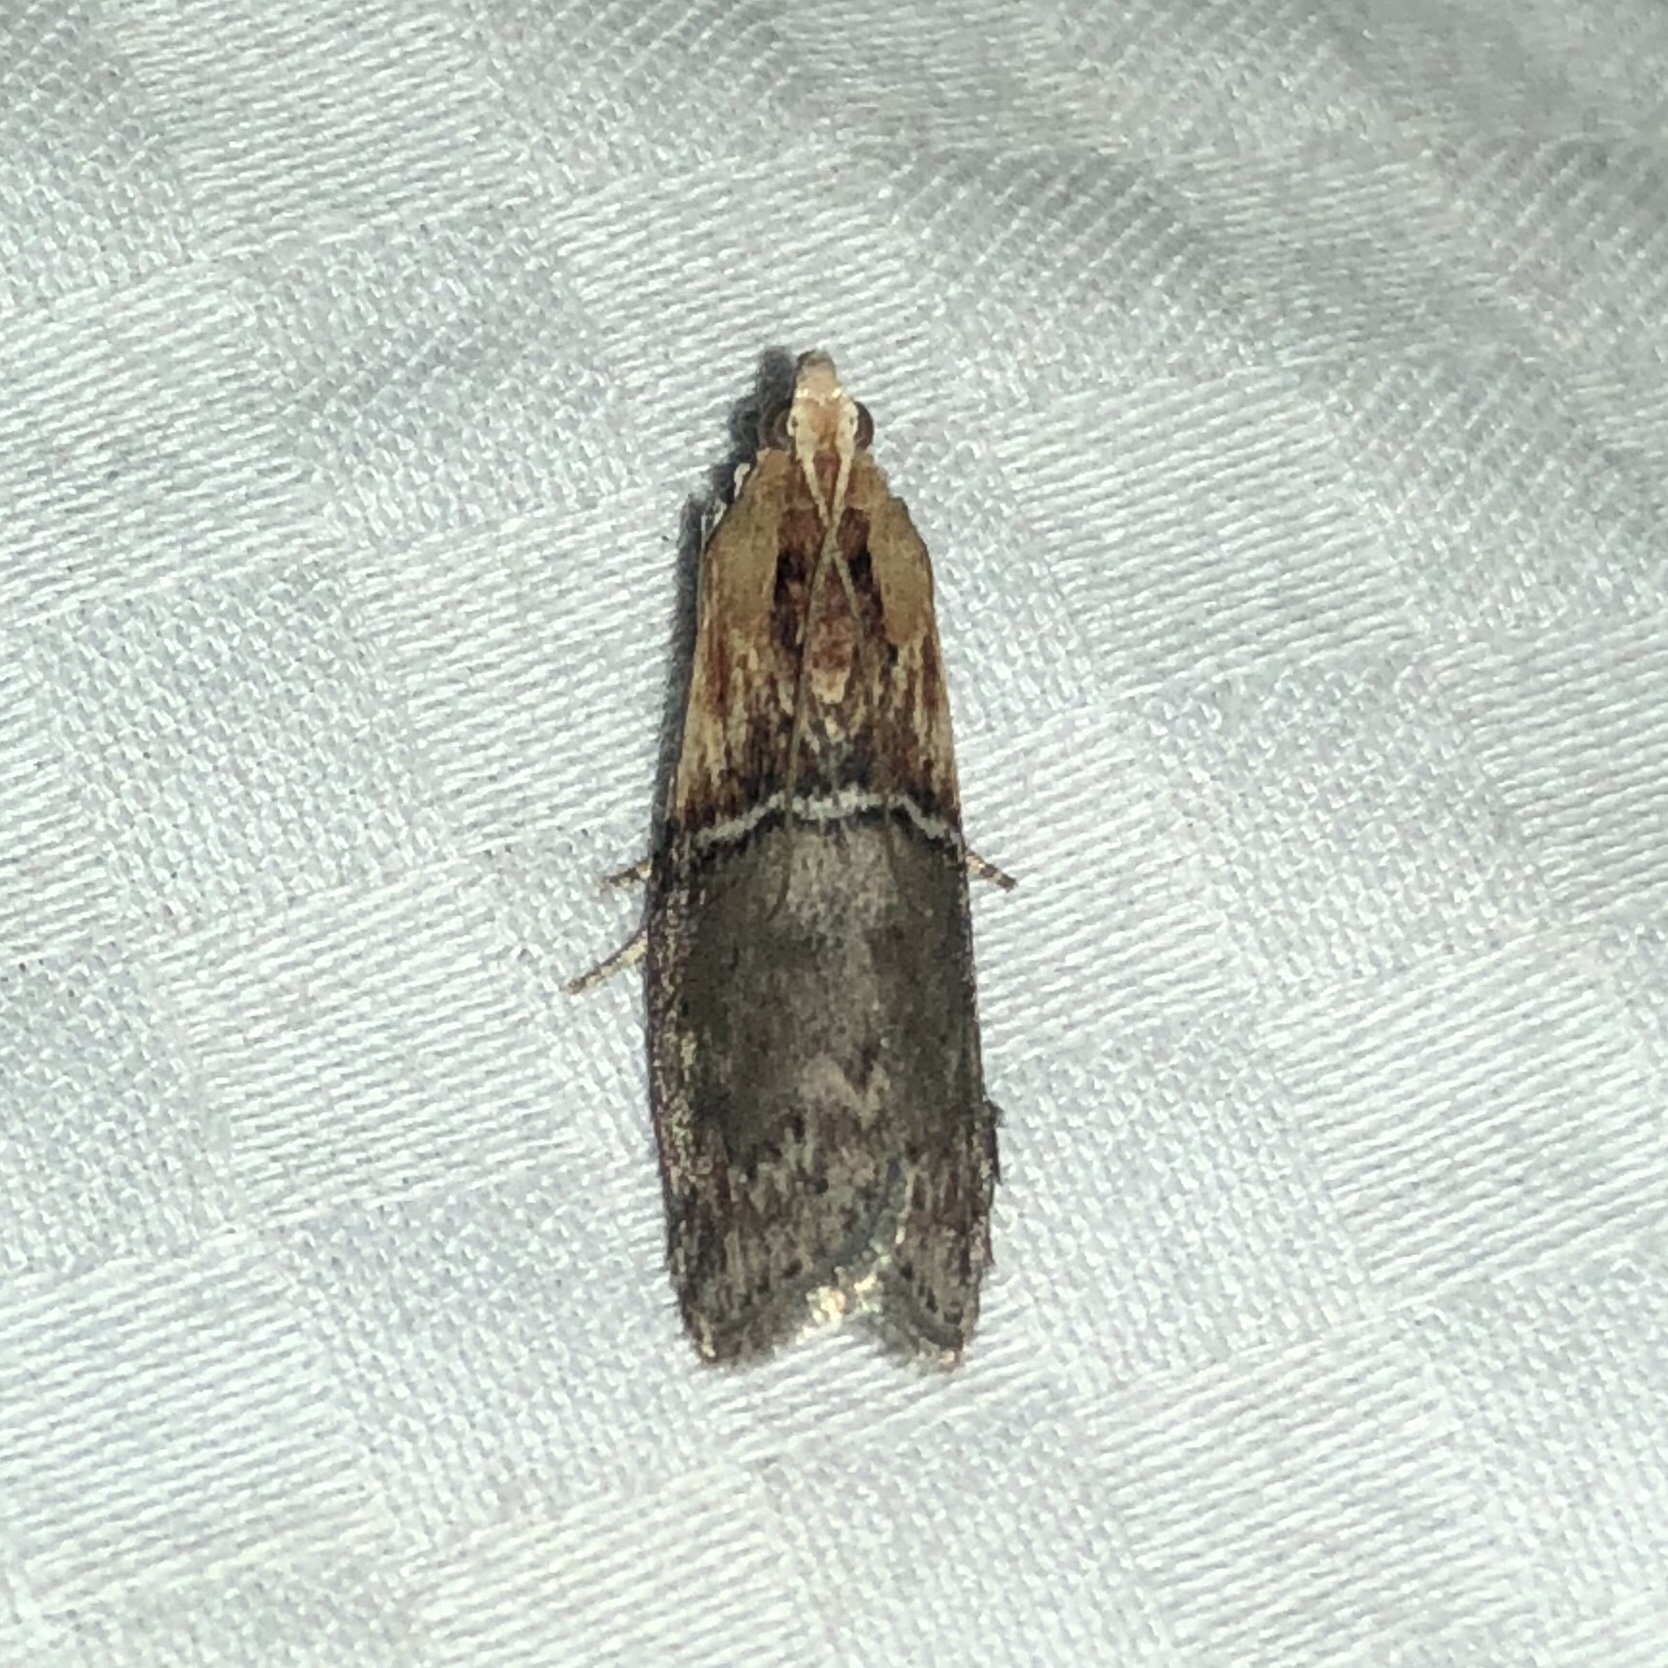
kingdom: Animalia
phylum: Arthropoda
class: Insecta
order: Lepidoptera
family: Pyralidae
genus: Sciota
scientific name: Sciota basilaris
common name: Yellow-shouldered leafroller
